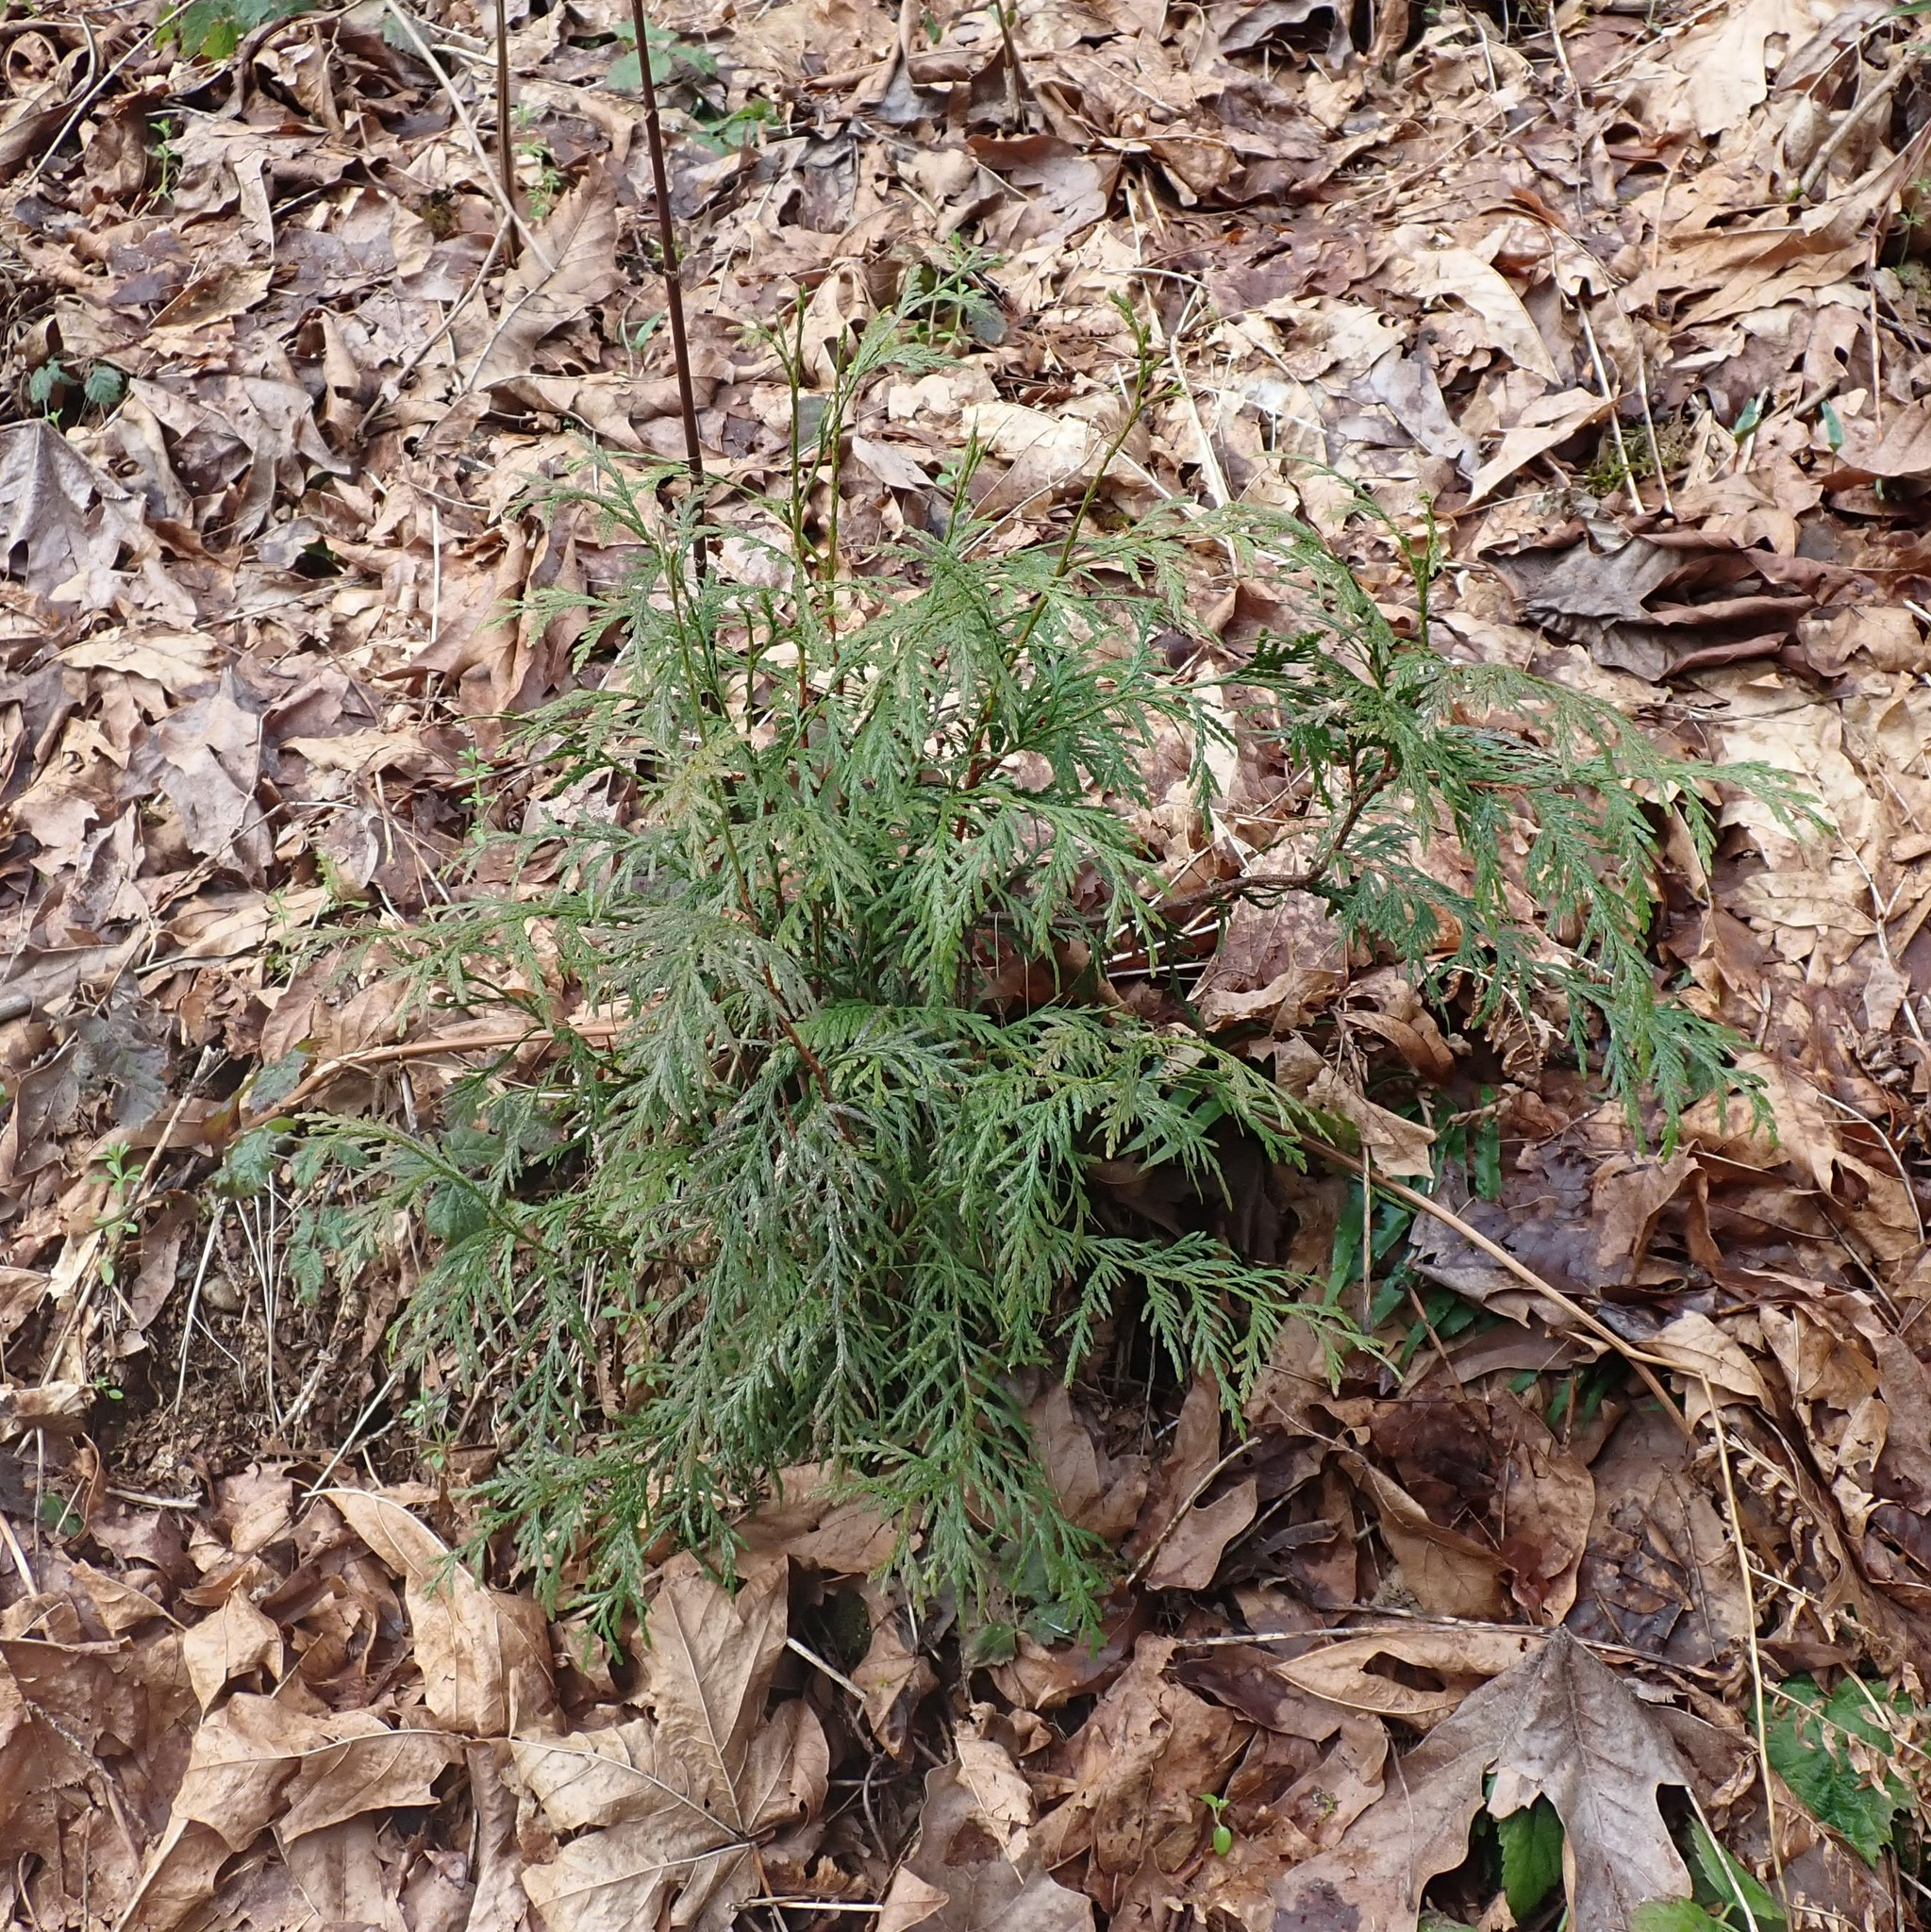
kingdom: Plantae
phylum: Tracheophyta
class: Pinopsida
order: Pinales
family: Cupressaceae
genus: Thuja
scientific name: Thuja plicata
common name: Western red-cedar
